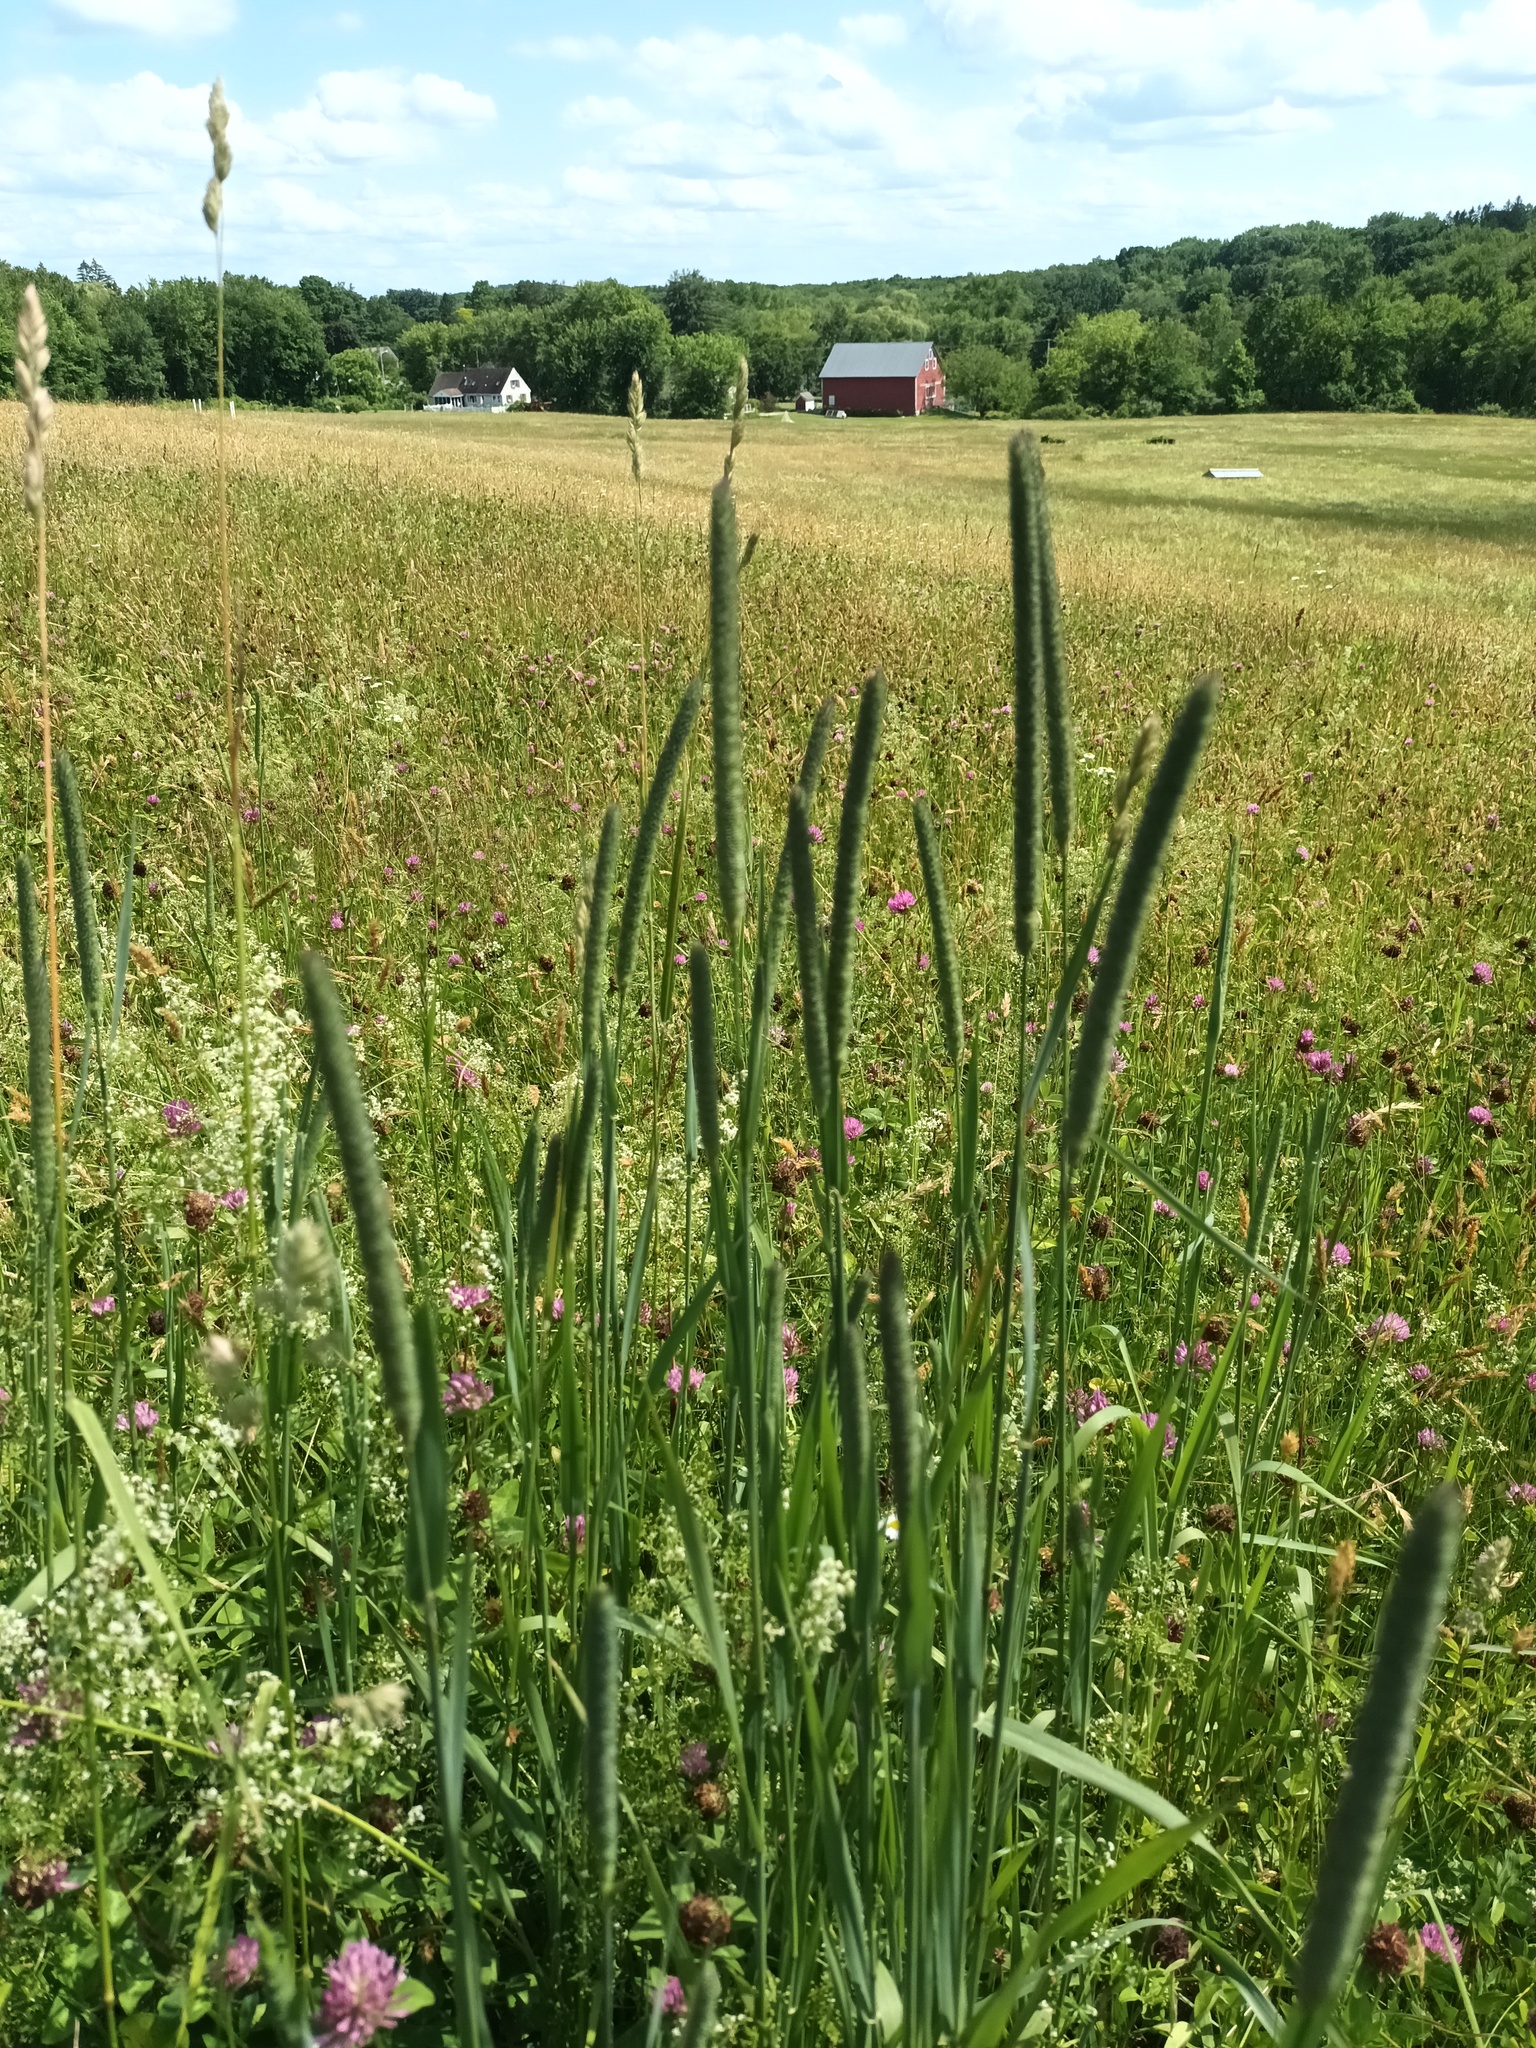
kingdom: Plantae
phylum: Tracheophyta
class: Liliopsida
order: Poales
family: Poaceae
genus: Phleum
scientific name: Phleum pratense
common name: Timothy grass
